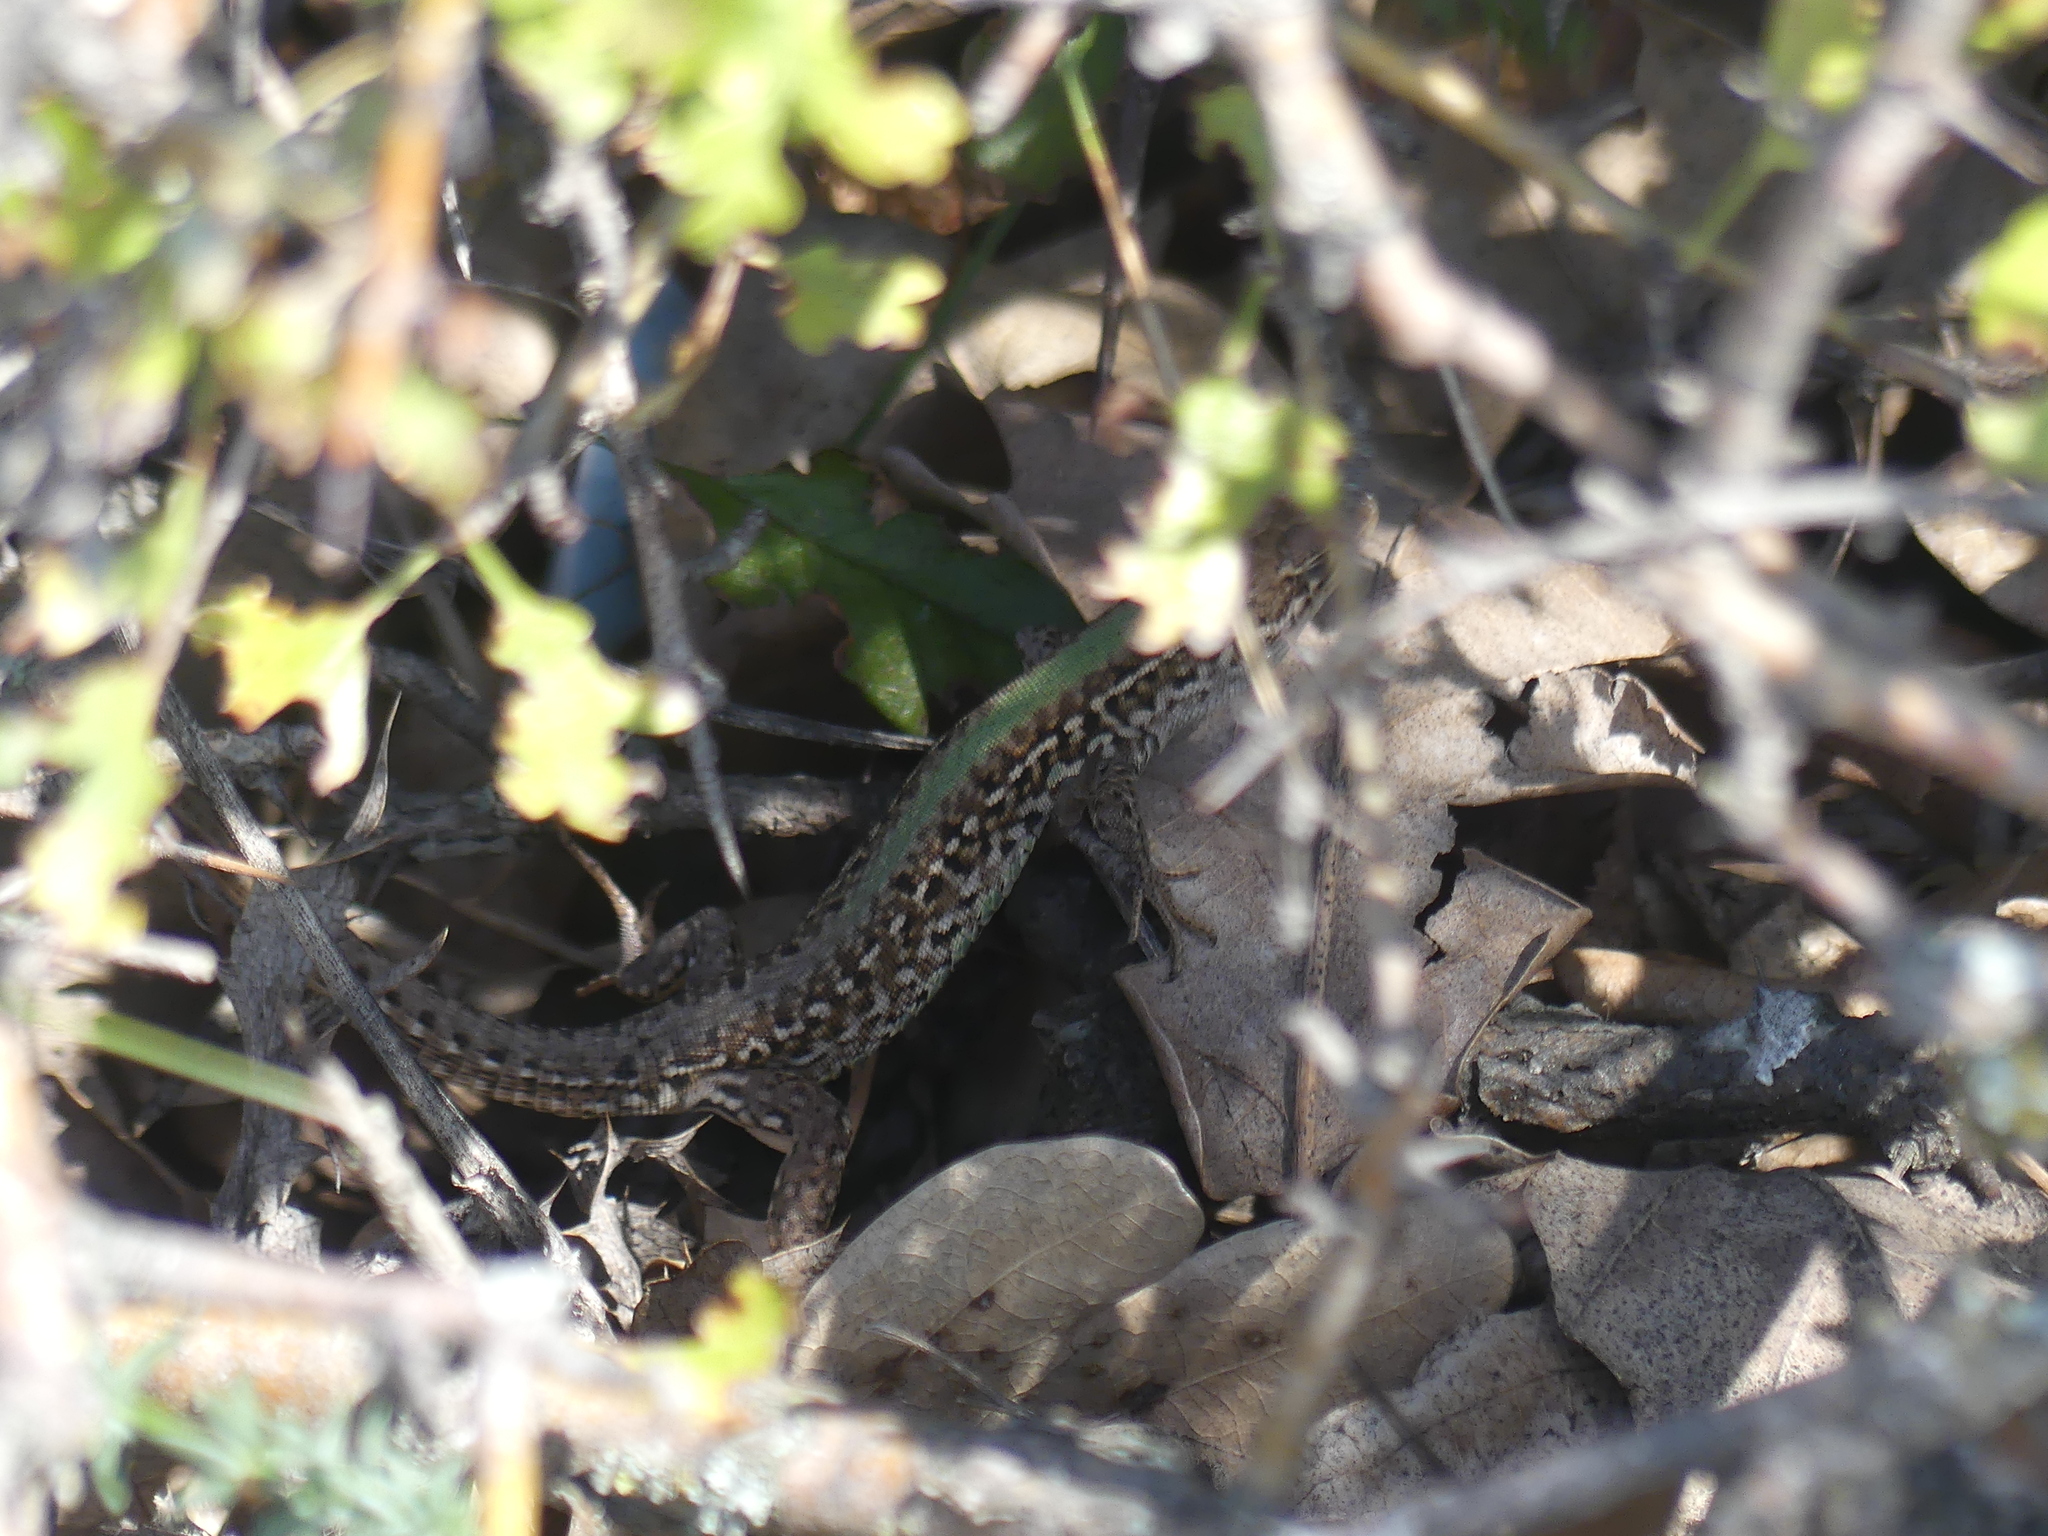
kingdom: Animalia
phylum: Chordata
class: Squamata
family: Lacertidae
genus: Podarcis
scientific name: Podarcis tauricus
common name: Balkan wall lizard
